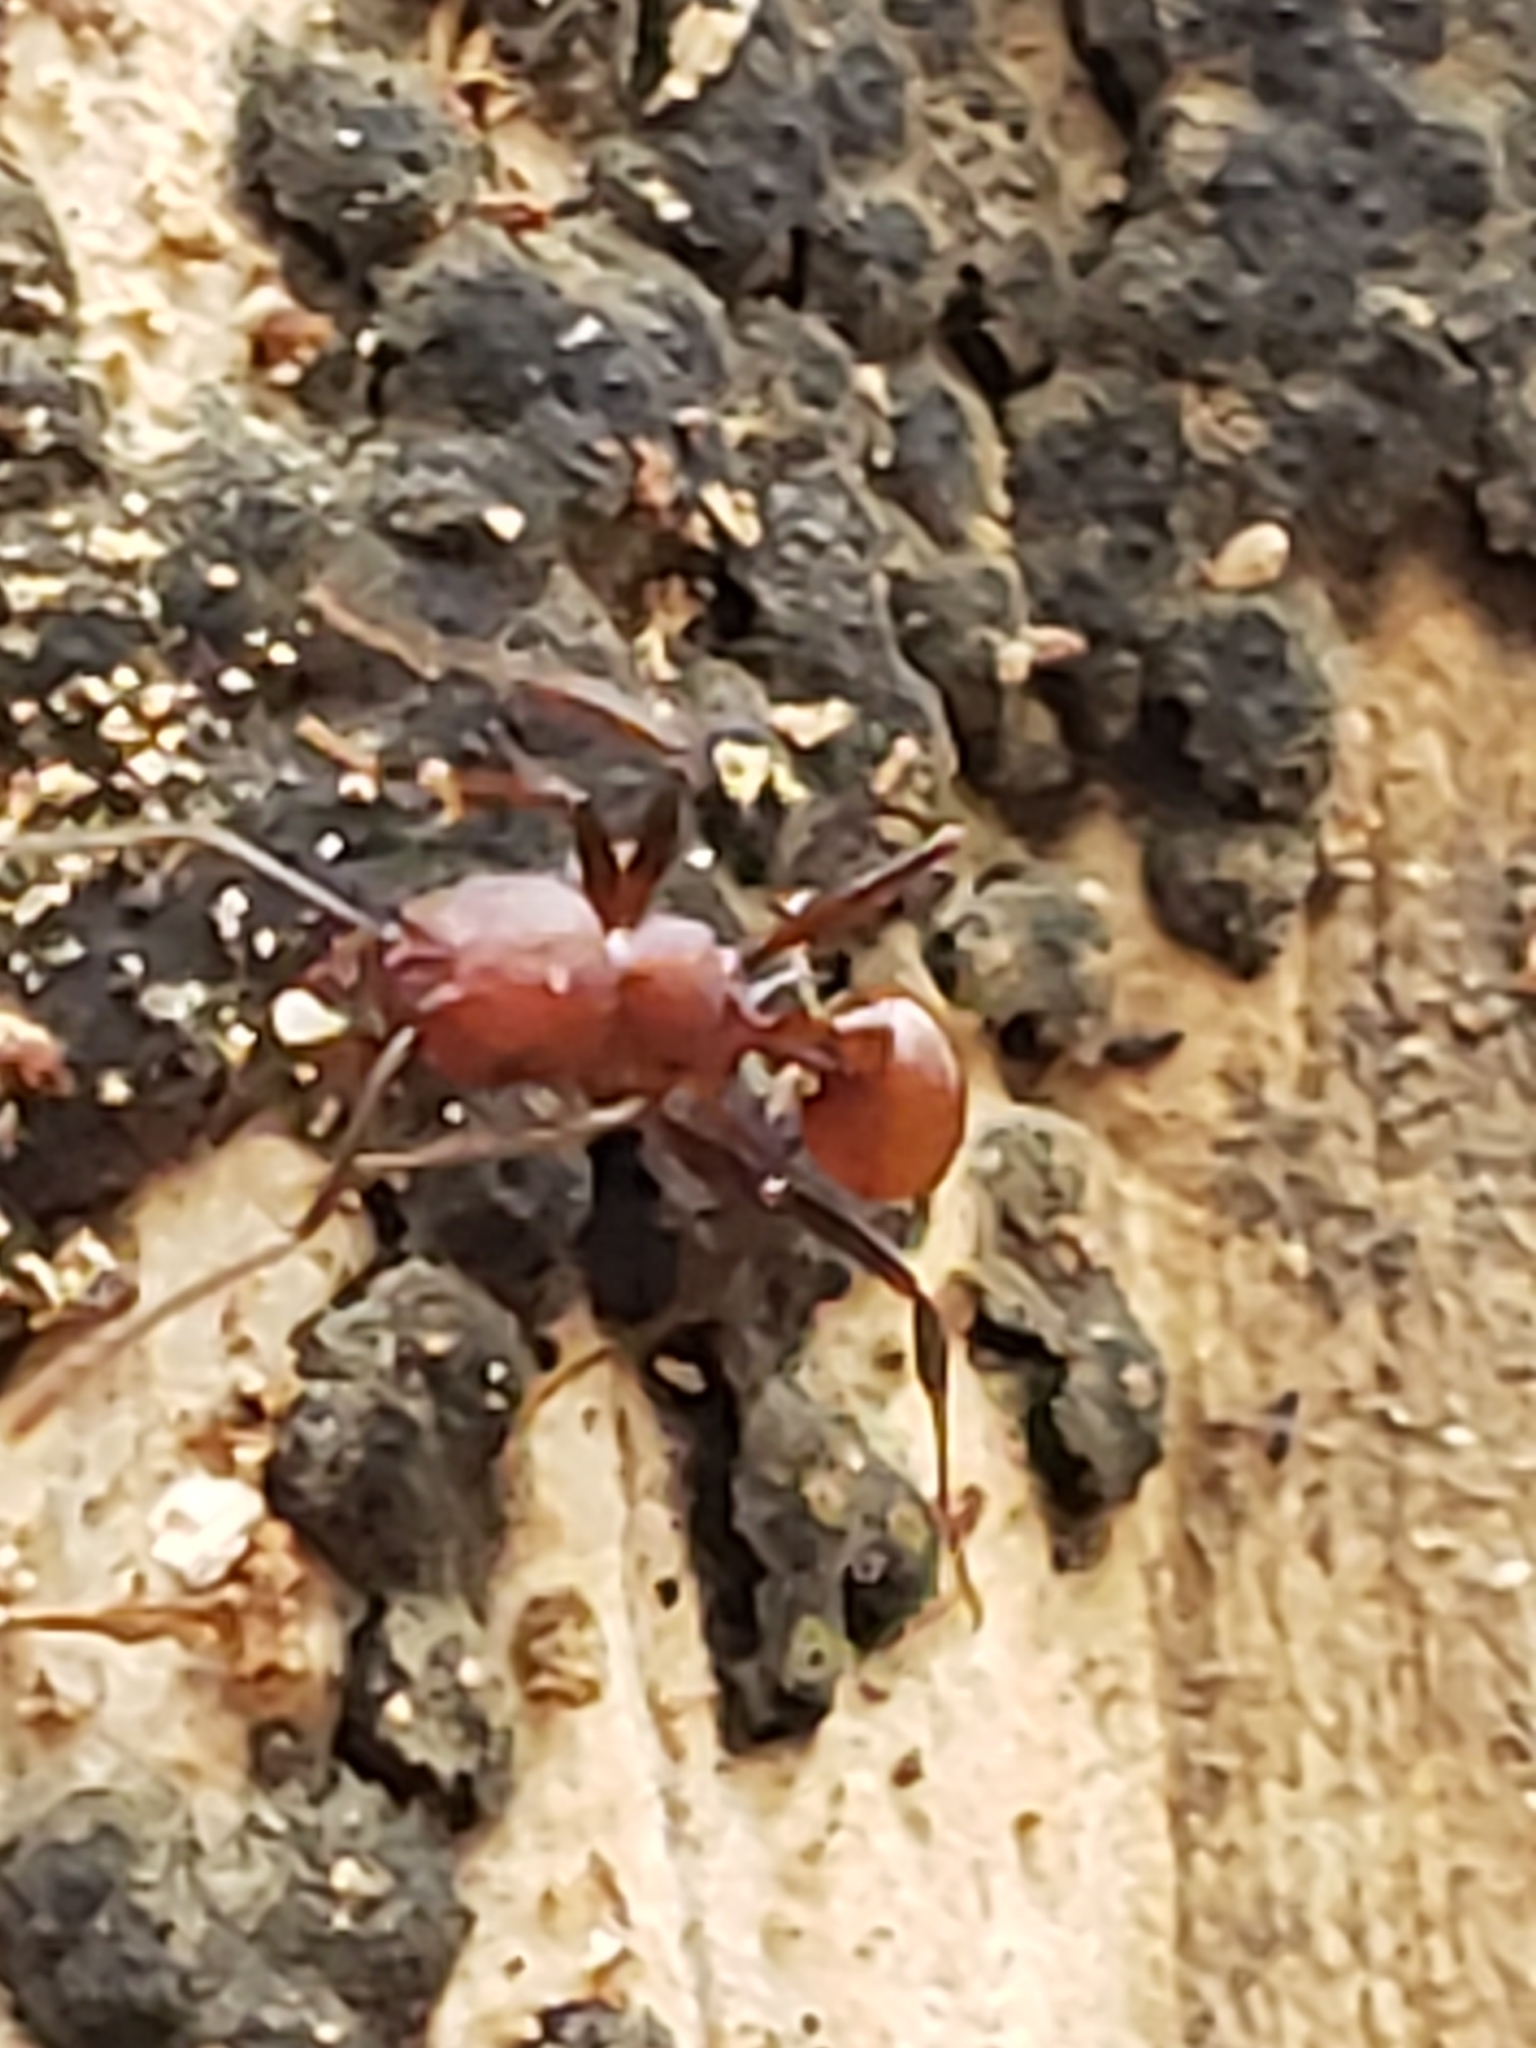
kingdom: Animalia
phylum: Arthropoda
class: Insecta
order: Hymenoptera
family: Formicidae
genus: Aphaenogaster
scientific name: Aphaenogaster tennesseensis
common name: Tennessee thread-waisted ant
